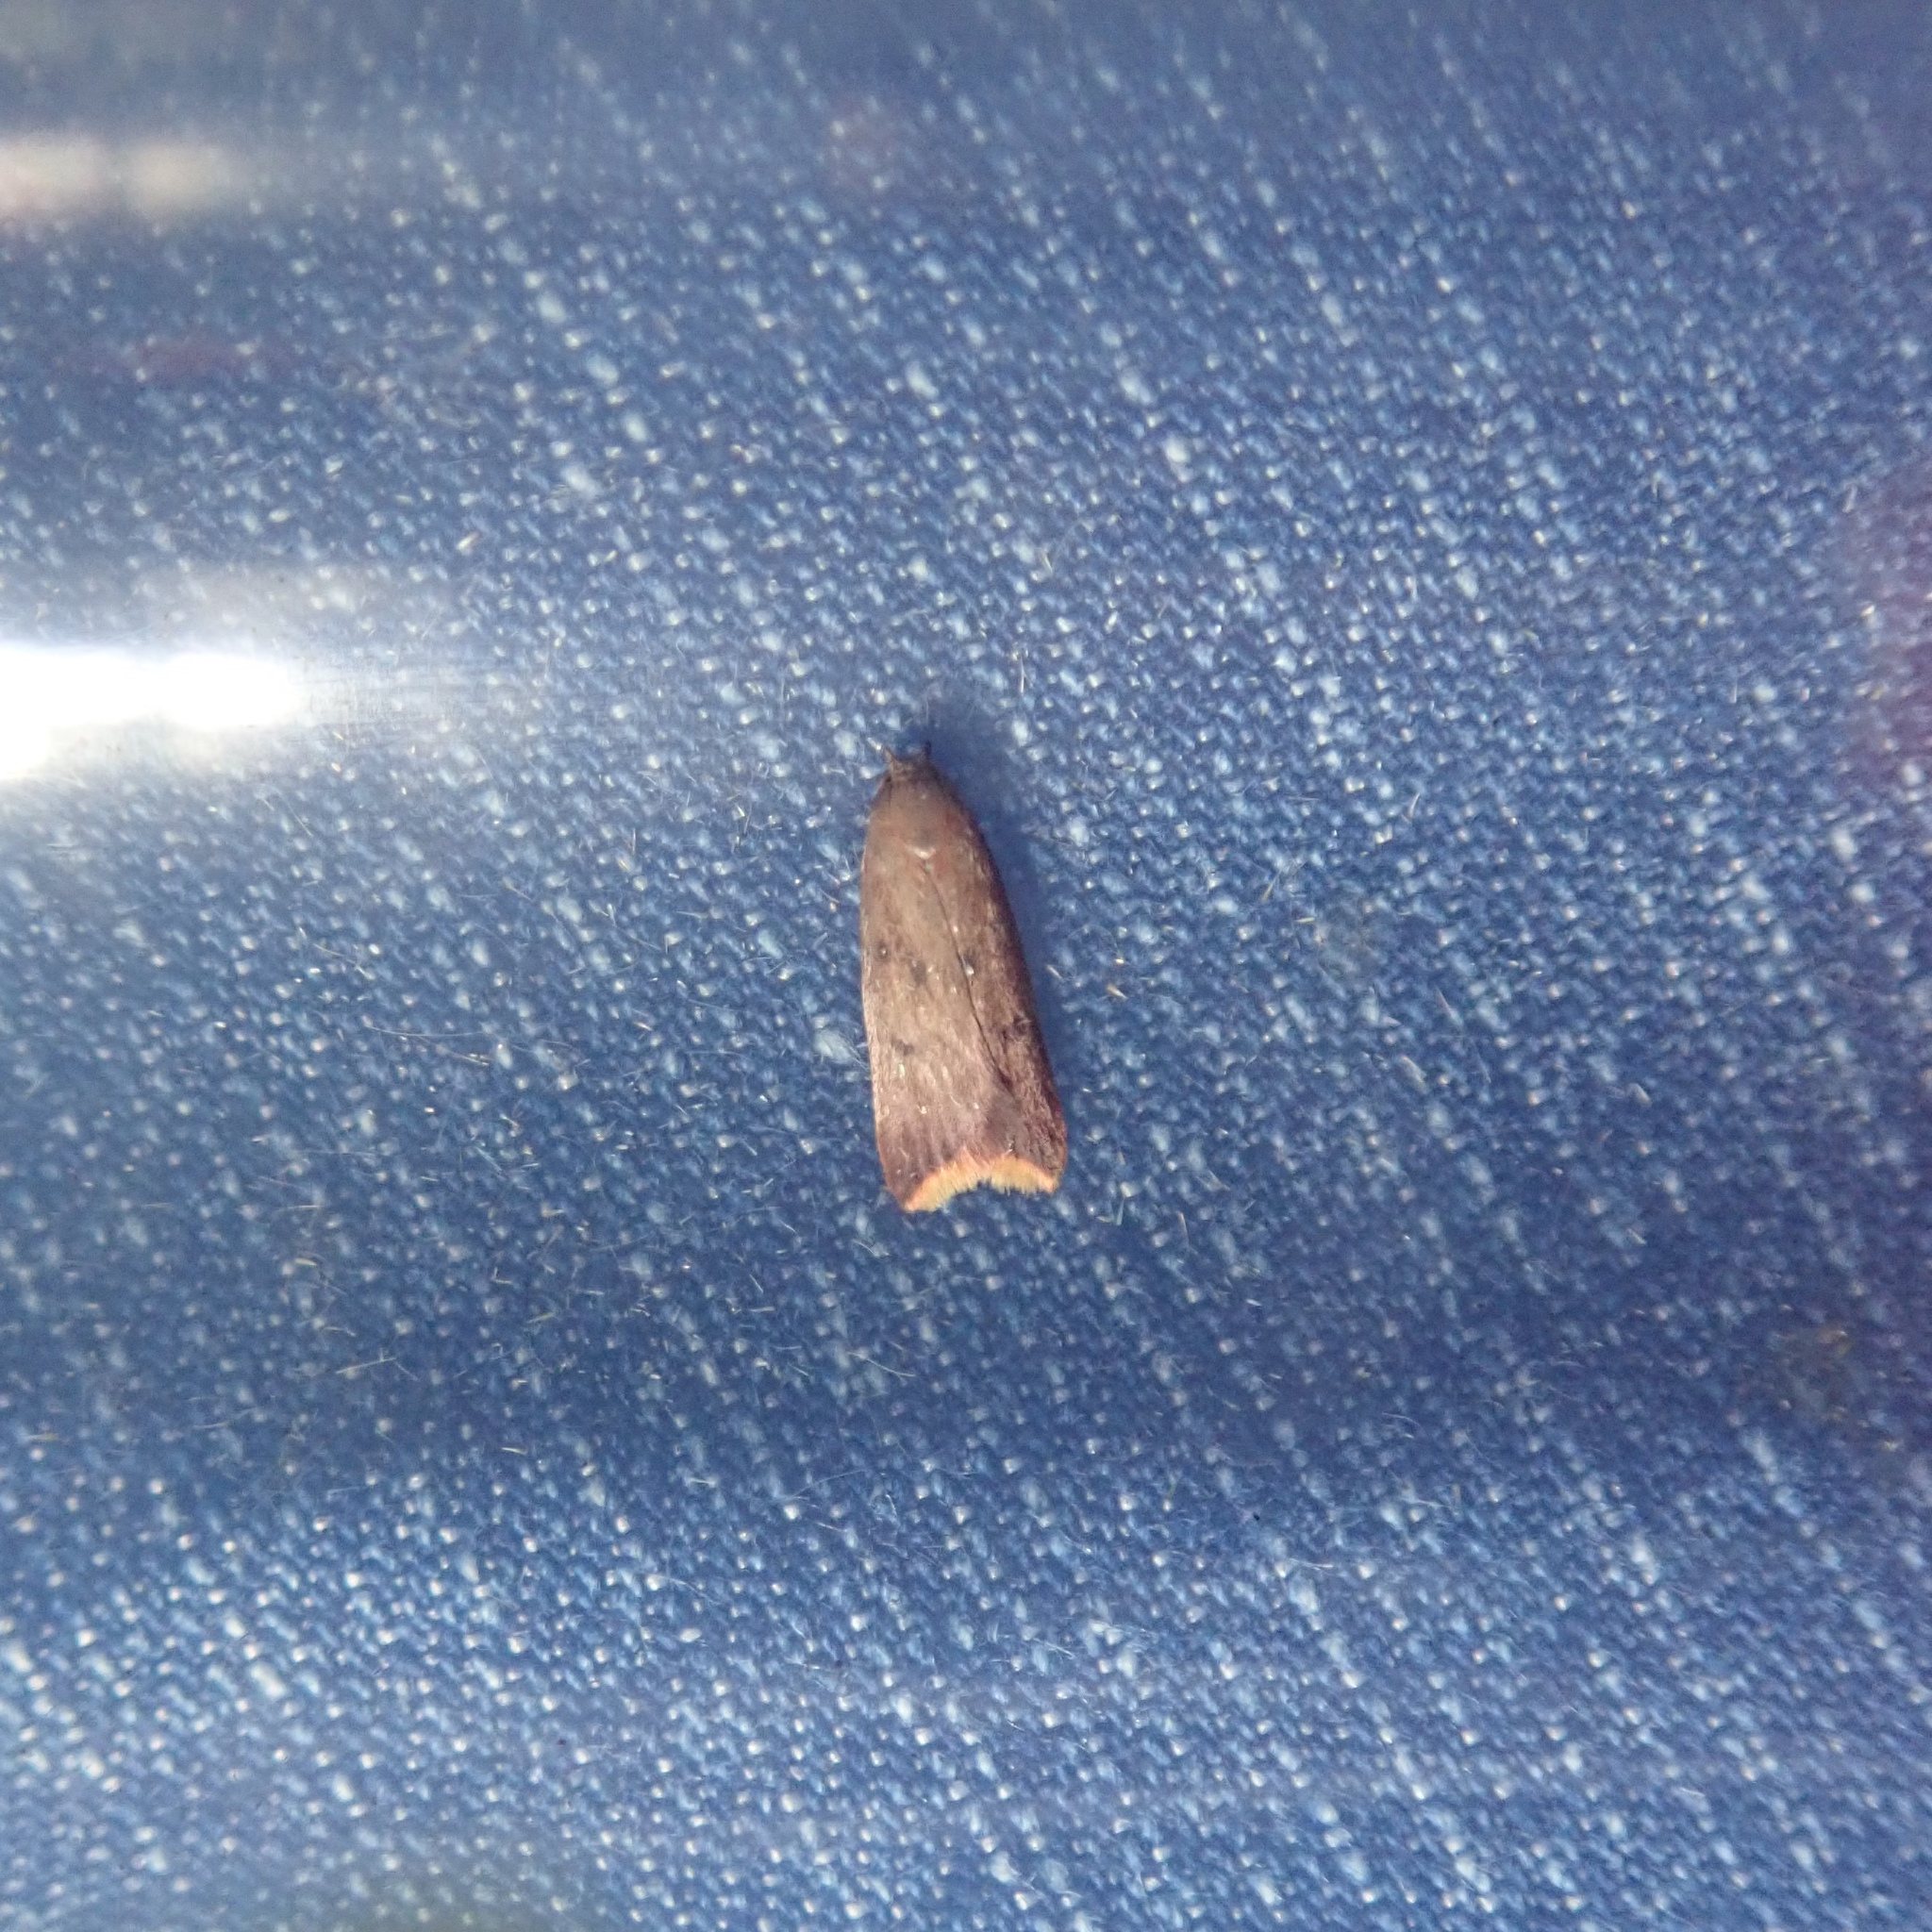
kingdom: Animalia
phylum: Arthropoda
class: Insecta
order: Lepidoptera
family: Oecophoridae
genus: Tachystola
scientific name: Tachystola acroxantha
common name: Ruddy streak
